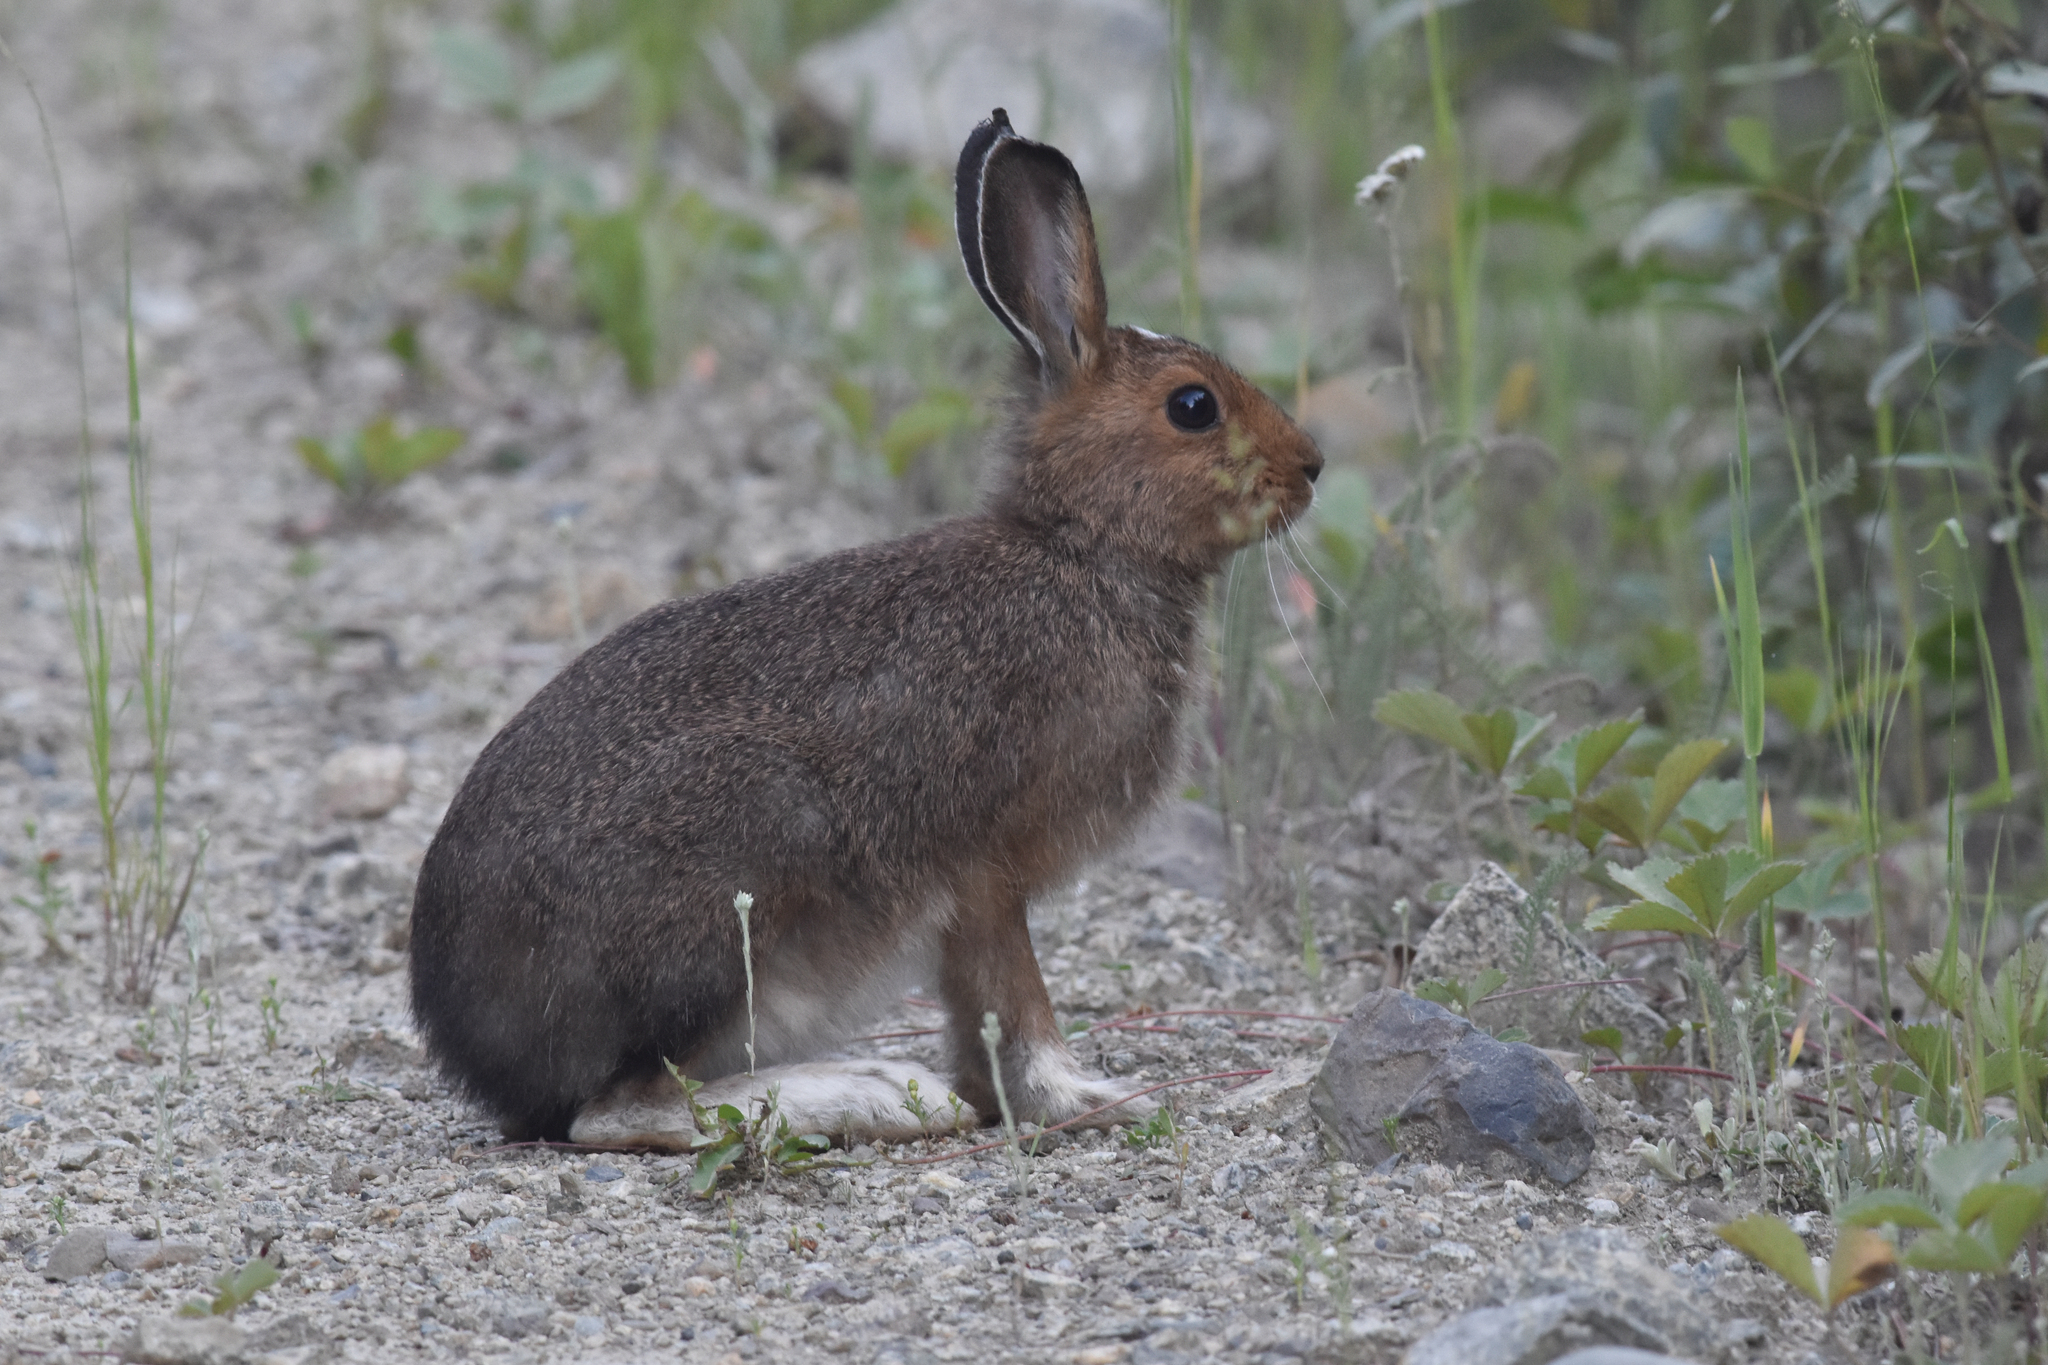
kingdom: Animalia
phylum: Chordata
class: Mammalia
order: Lagomorpha
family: Leporidae
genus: Lepus
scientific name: Lepus americanus
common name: Snowshoe hare
